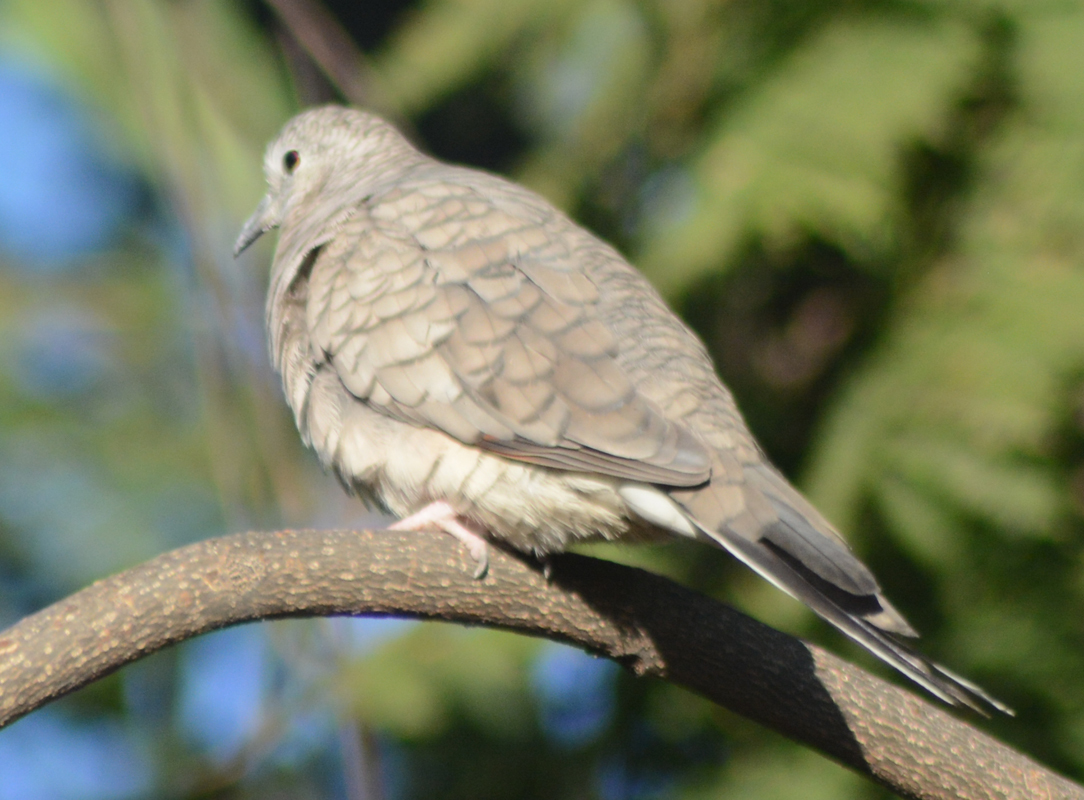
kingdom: Animalia
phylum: Chordata
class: Aves
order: Columbiformes
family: Columbidae
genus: Columbina
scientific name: Columbina inca
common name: Inca dove
